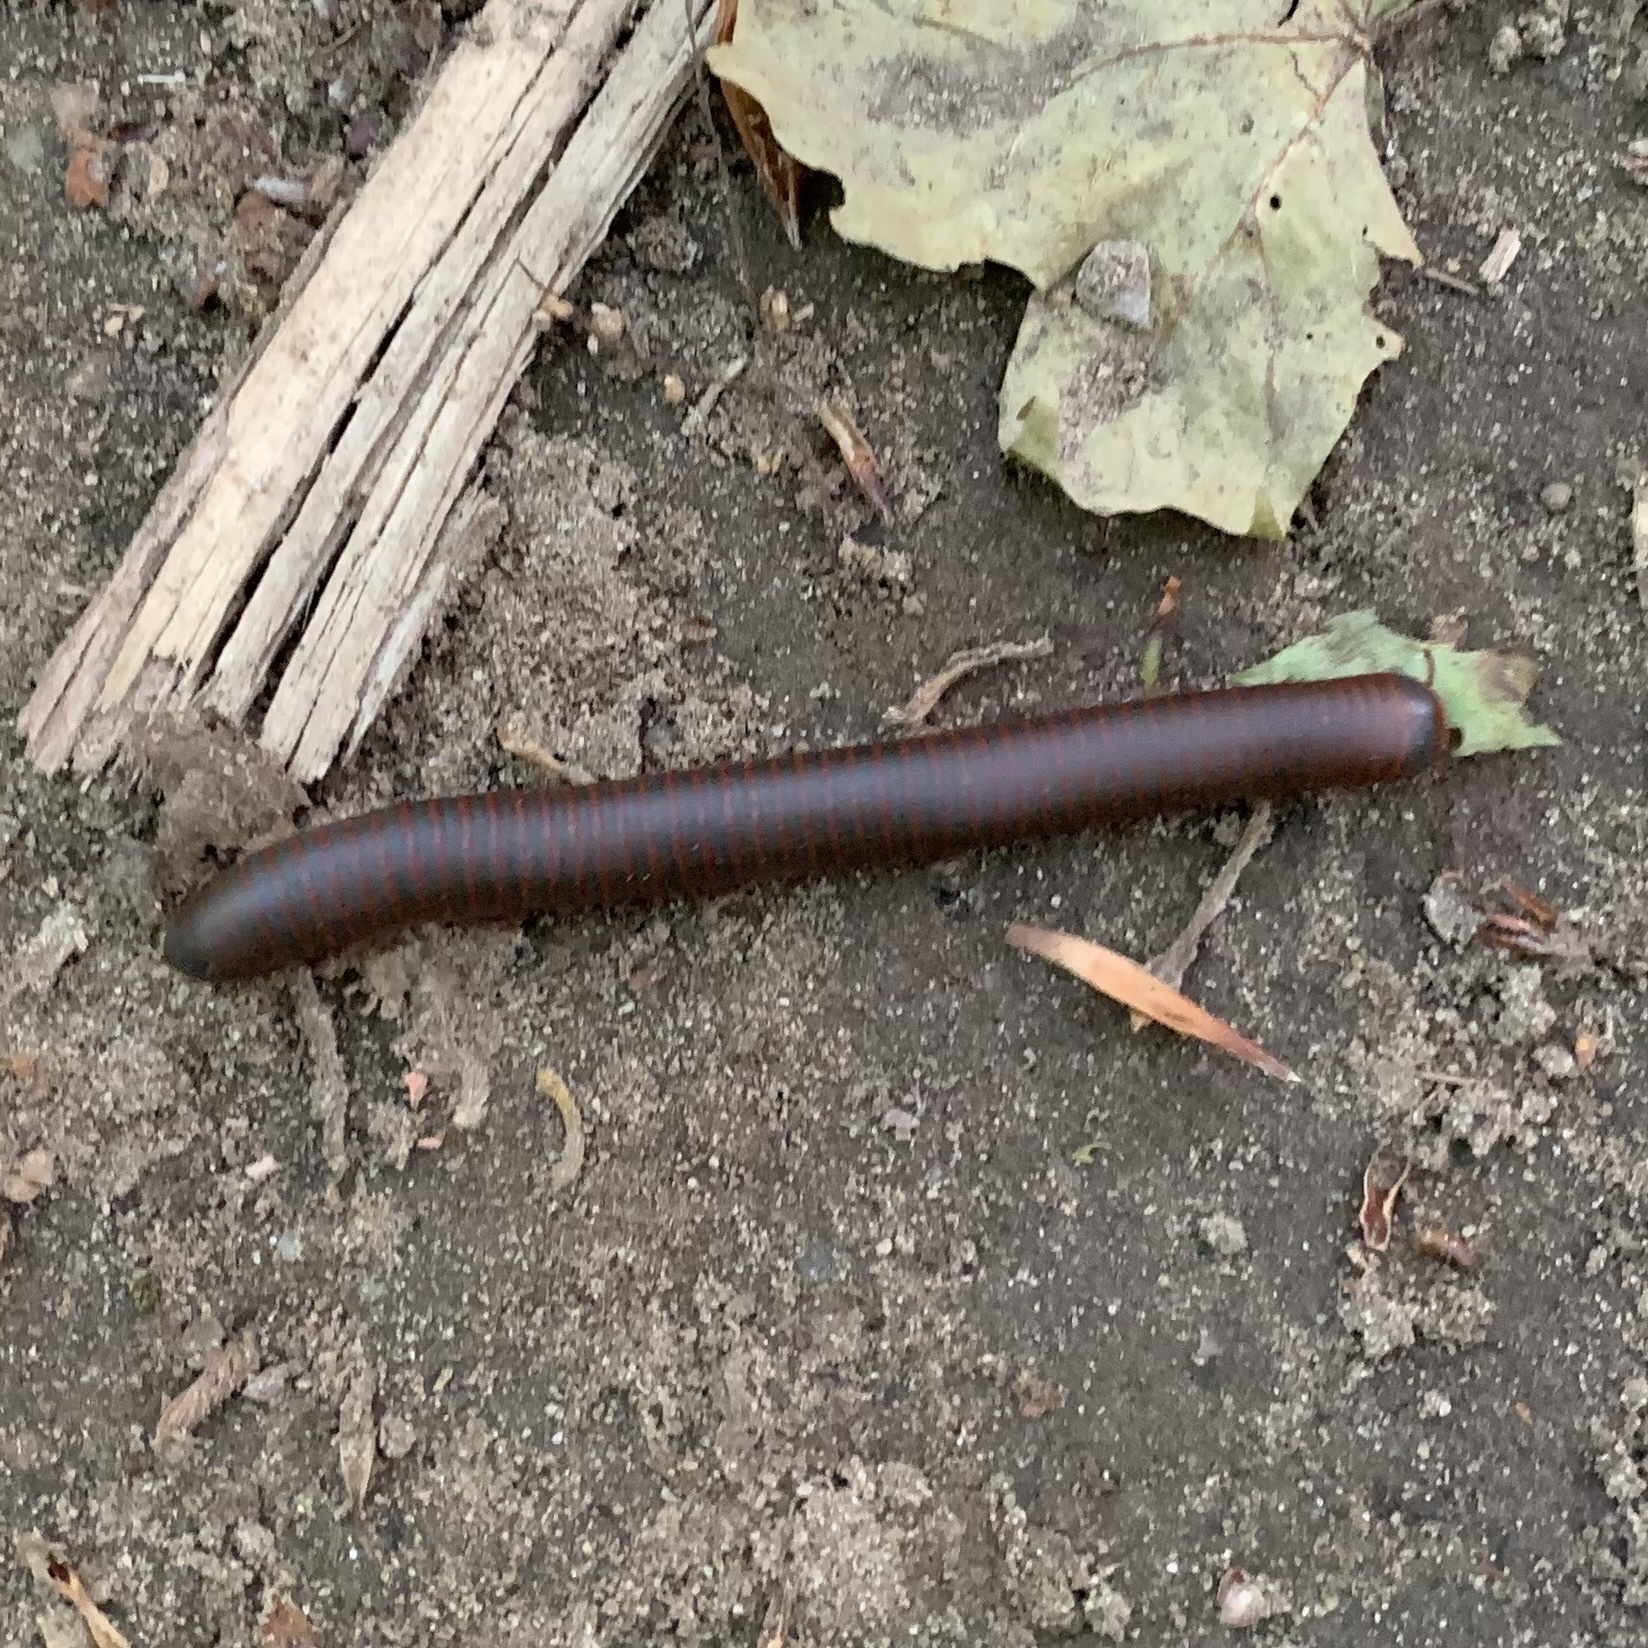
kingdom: Animalia
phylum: Arthropoda
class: Diplopoda
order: Spirobolida
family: Spirobolidae
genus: Narceus
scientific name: Narceus
